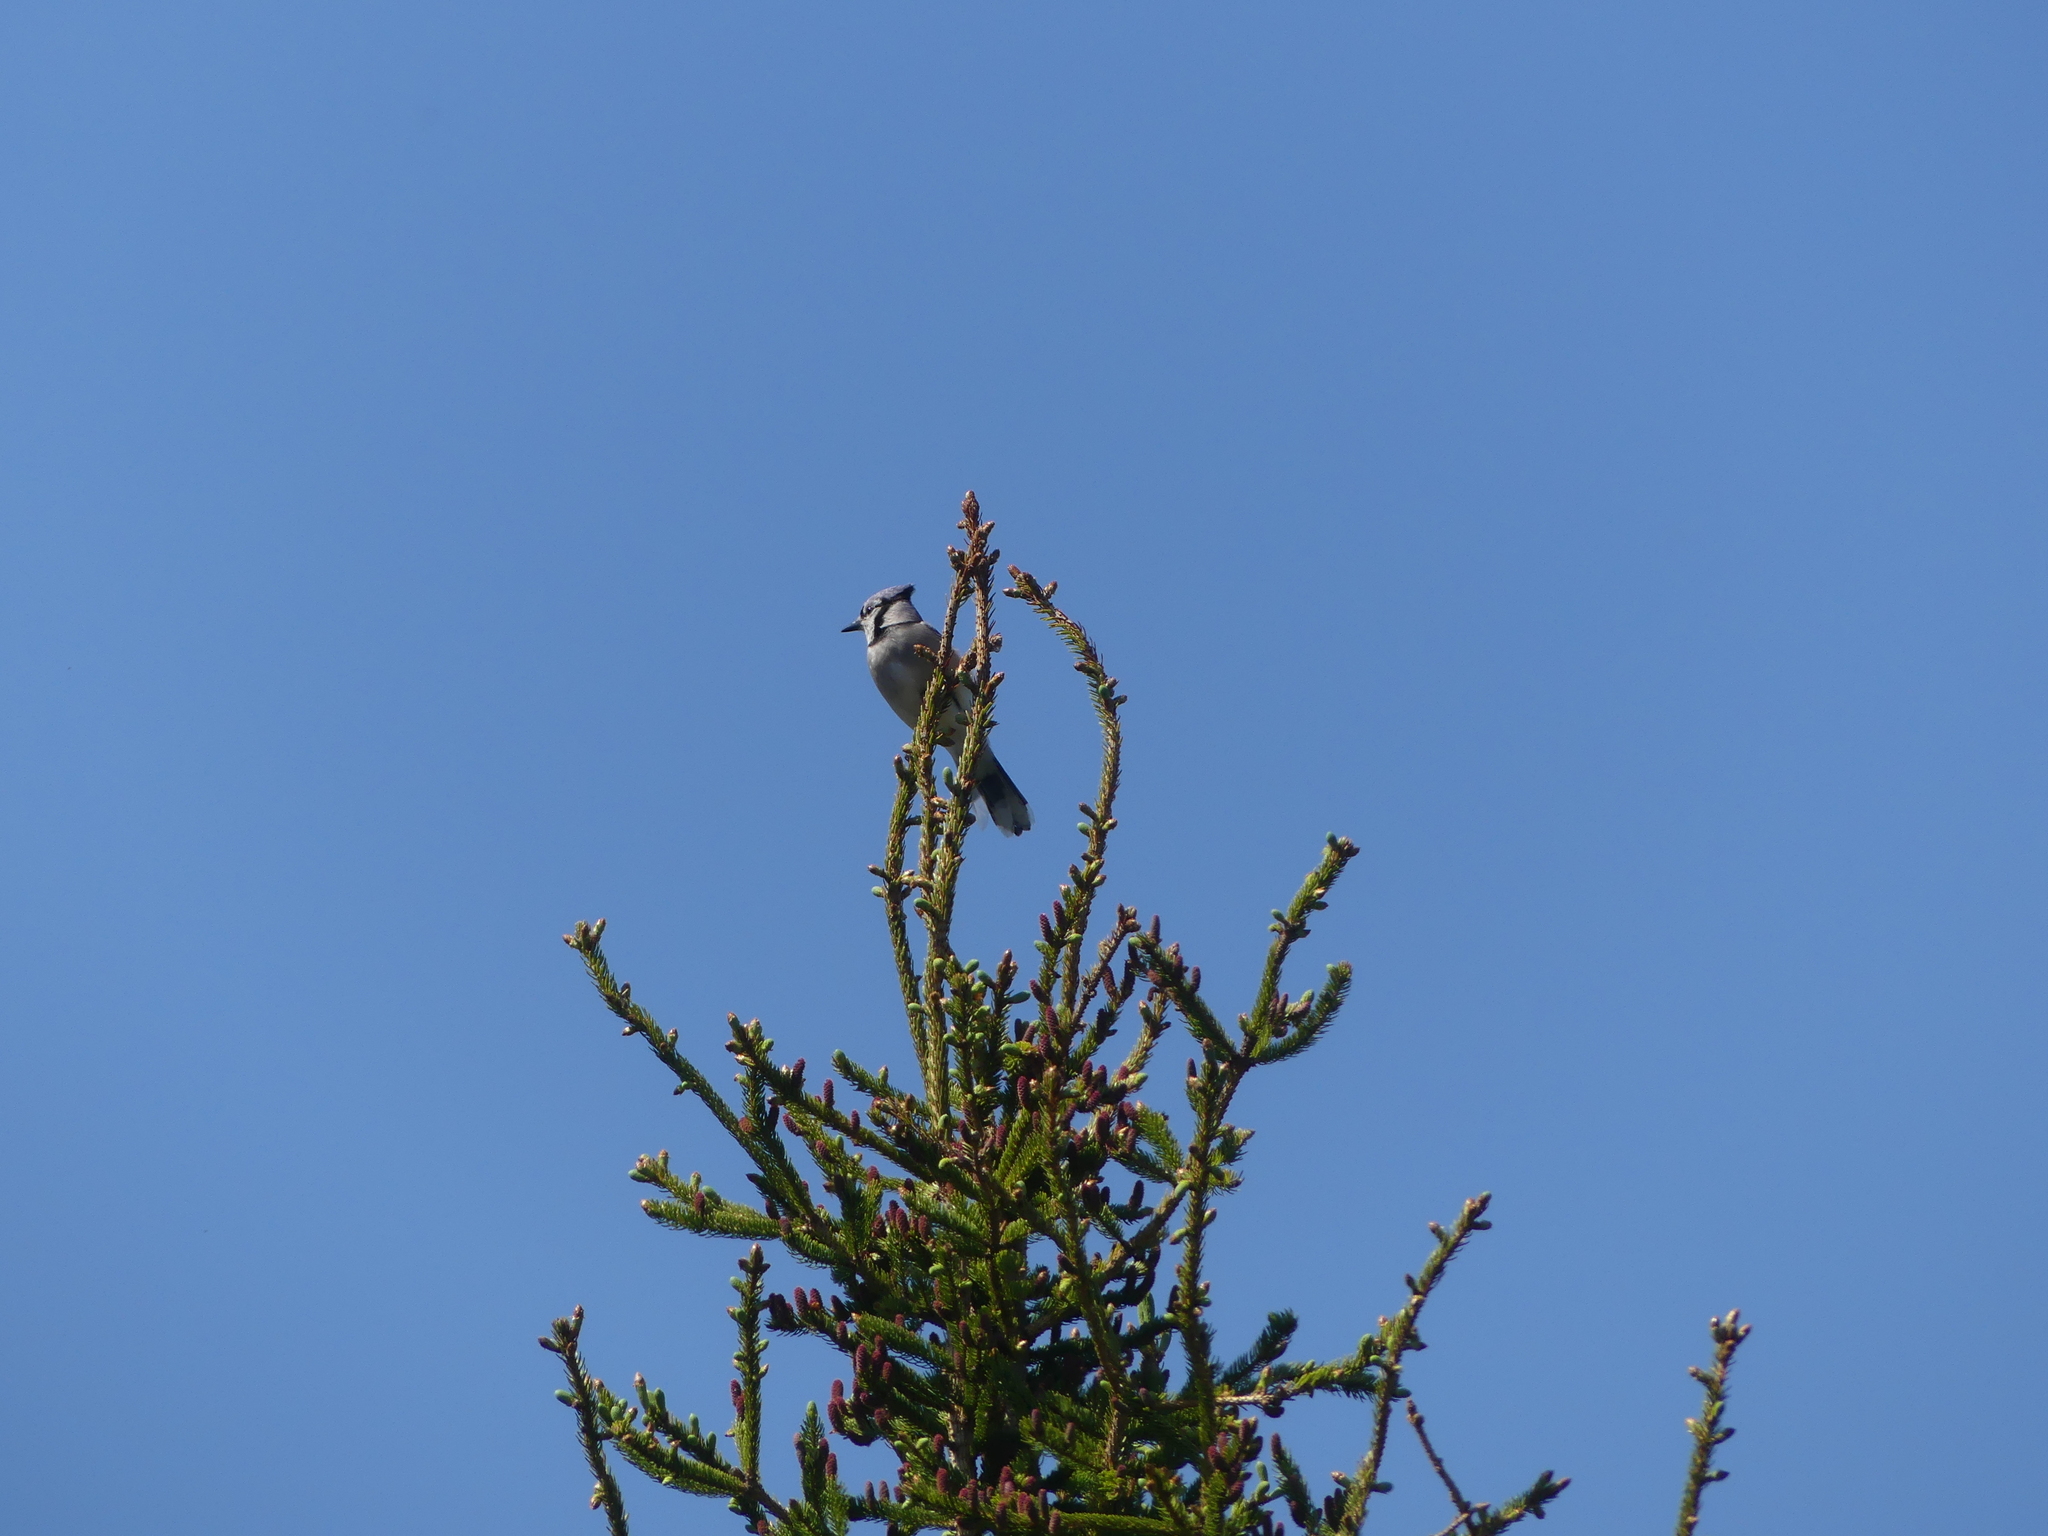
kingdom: Animalia
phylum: Chordata
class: Aves
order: Passeriformes
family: Corvidae
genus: Cyanocitta
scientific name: Cyanocitta cristata
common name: Blue jay
